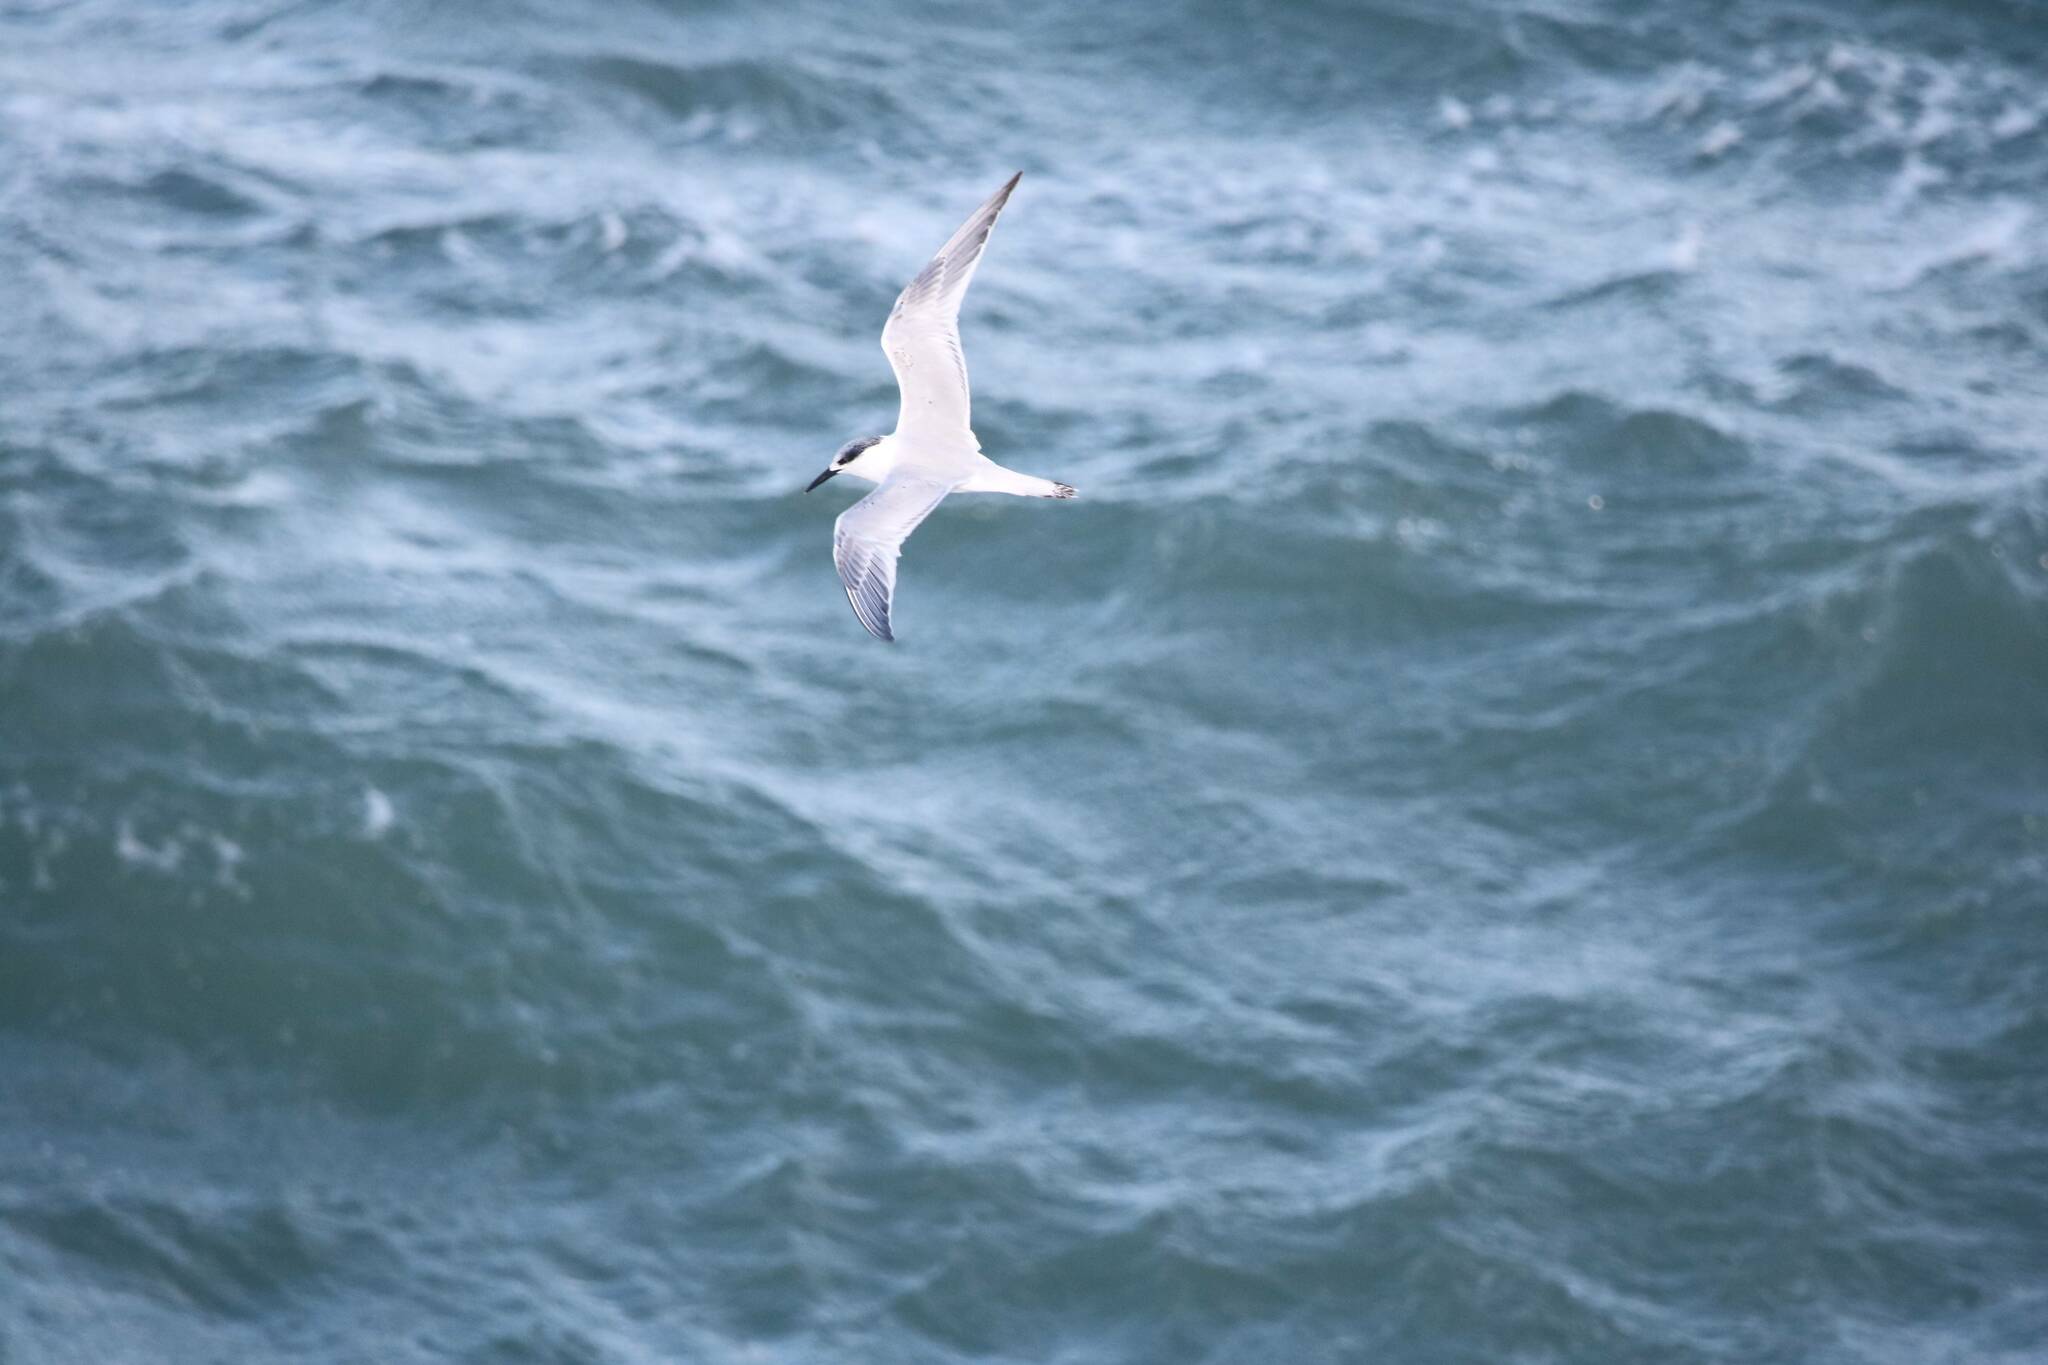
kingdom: Animalia
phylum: Chordata
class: Aves
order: Charadriiformes
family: Laridae
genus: Thalasseus
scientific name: Thalasseus sandvicensis
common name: Sandwich tern
